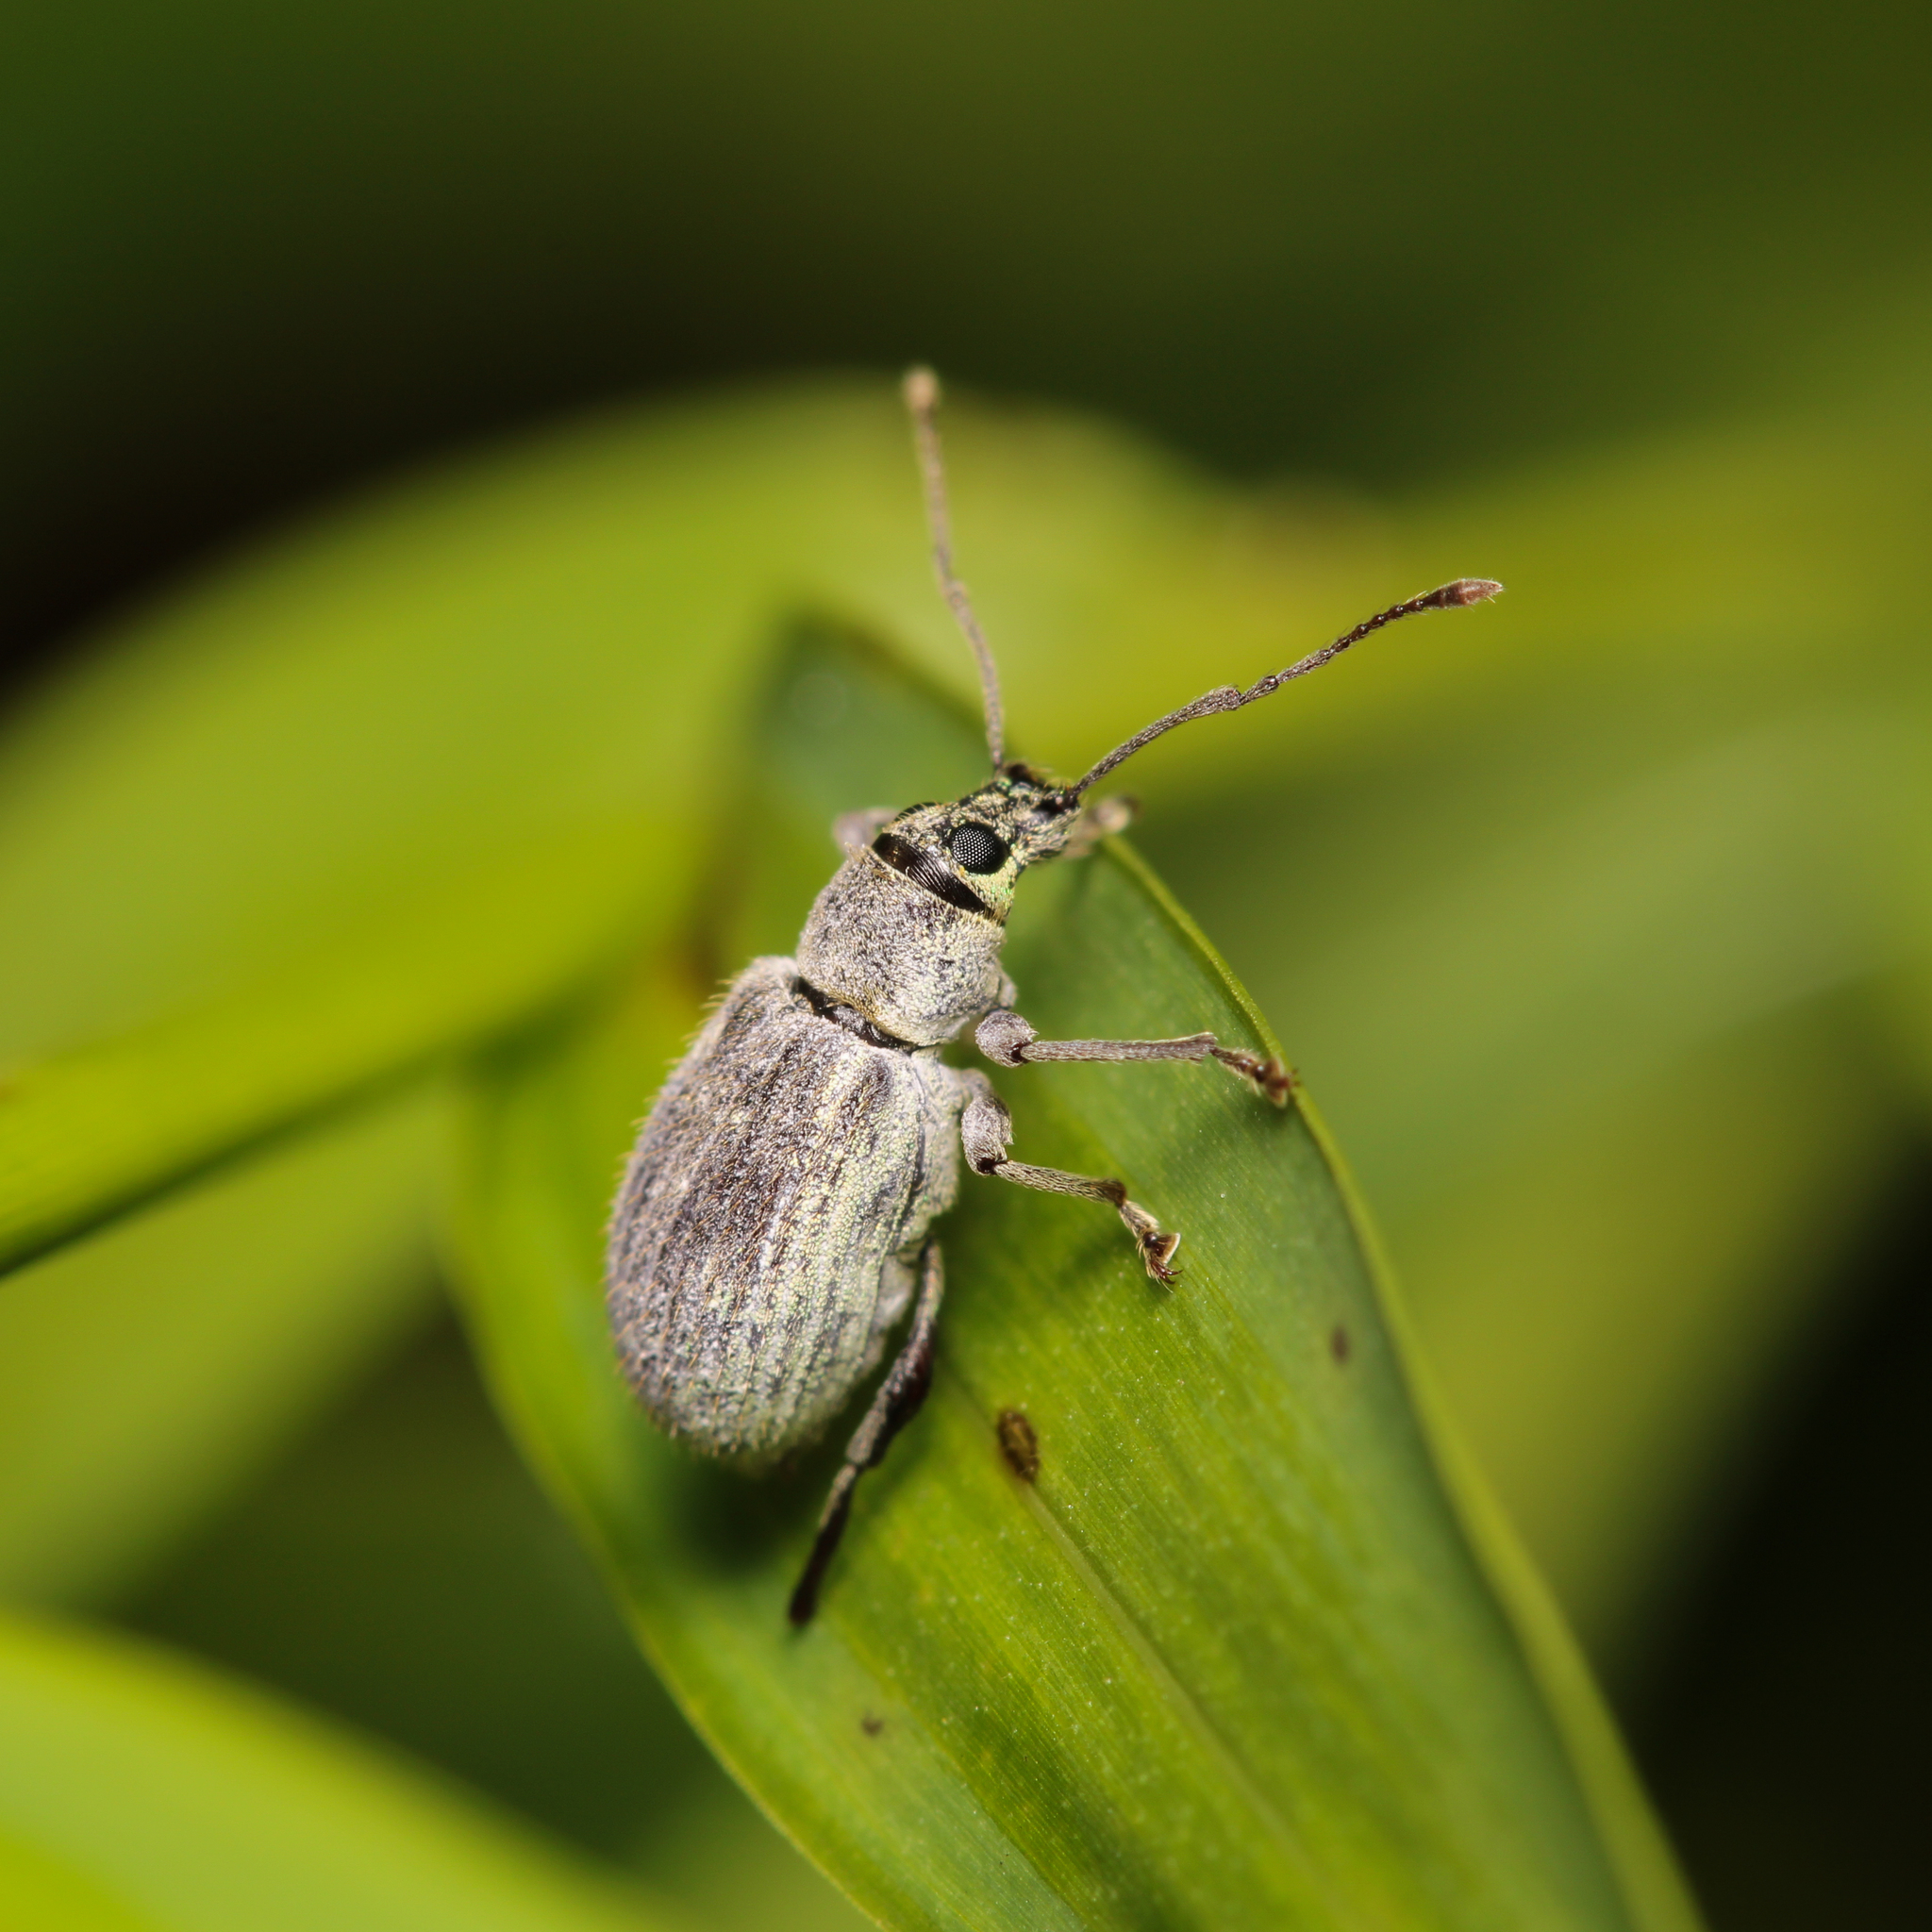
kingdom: Animalia
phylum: Arthropoda
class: Insecta
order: Coleoptera
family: Curculionidae
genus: Cyrtepistomus
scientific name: Cyrtepistomus castaneus
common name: Weevil
